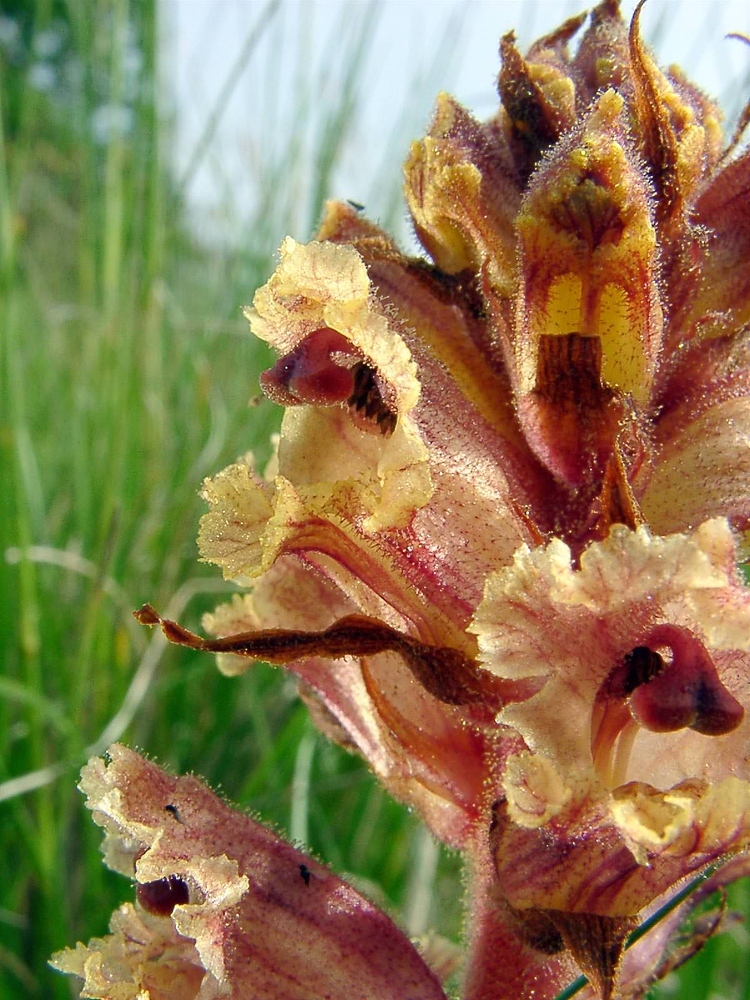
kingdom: Plantae
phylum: Tracheophyta
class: Magnoliopsida
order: Lamiales
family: Orobanchaceae
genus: Orobanche
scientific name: Orobanche alba
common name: Thyme broomrape
